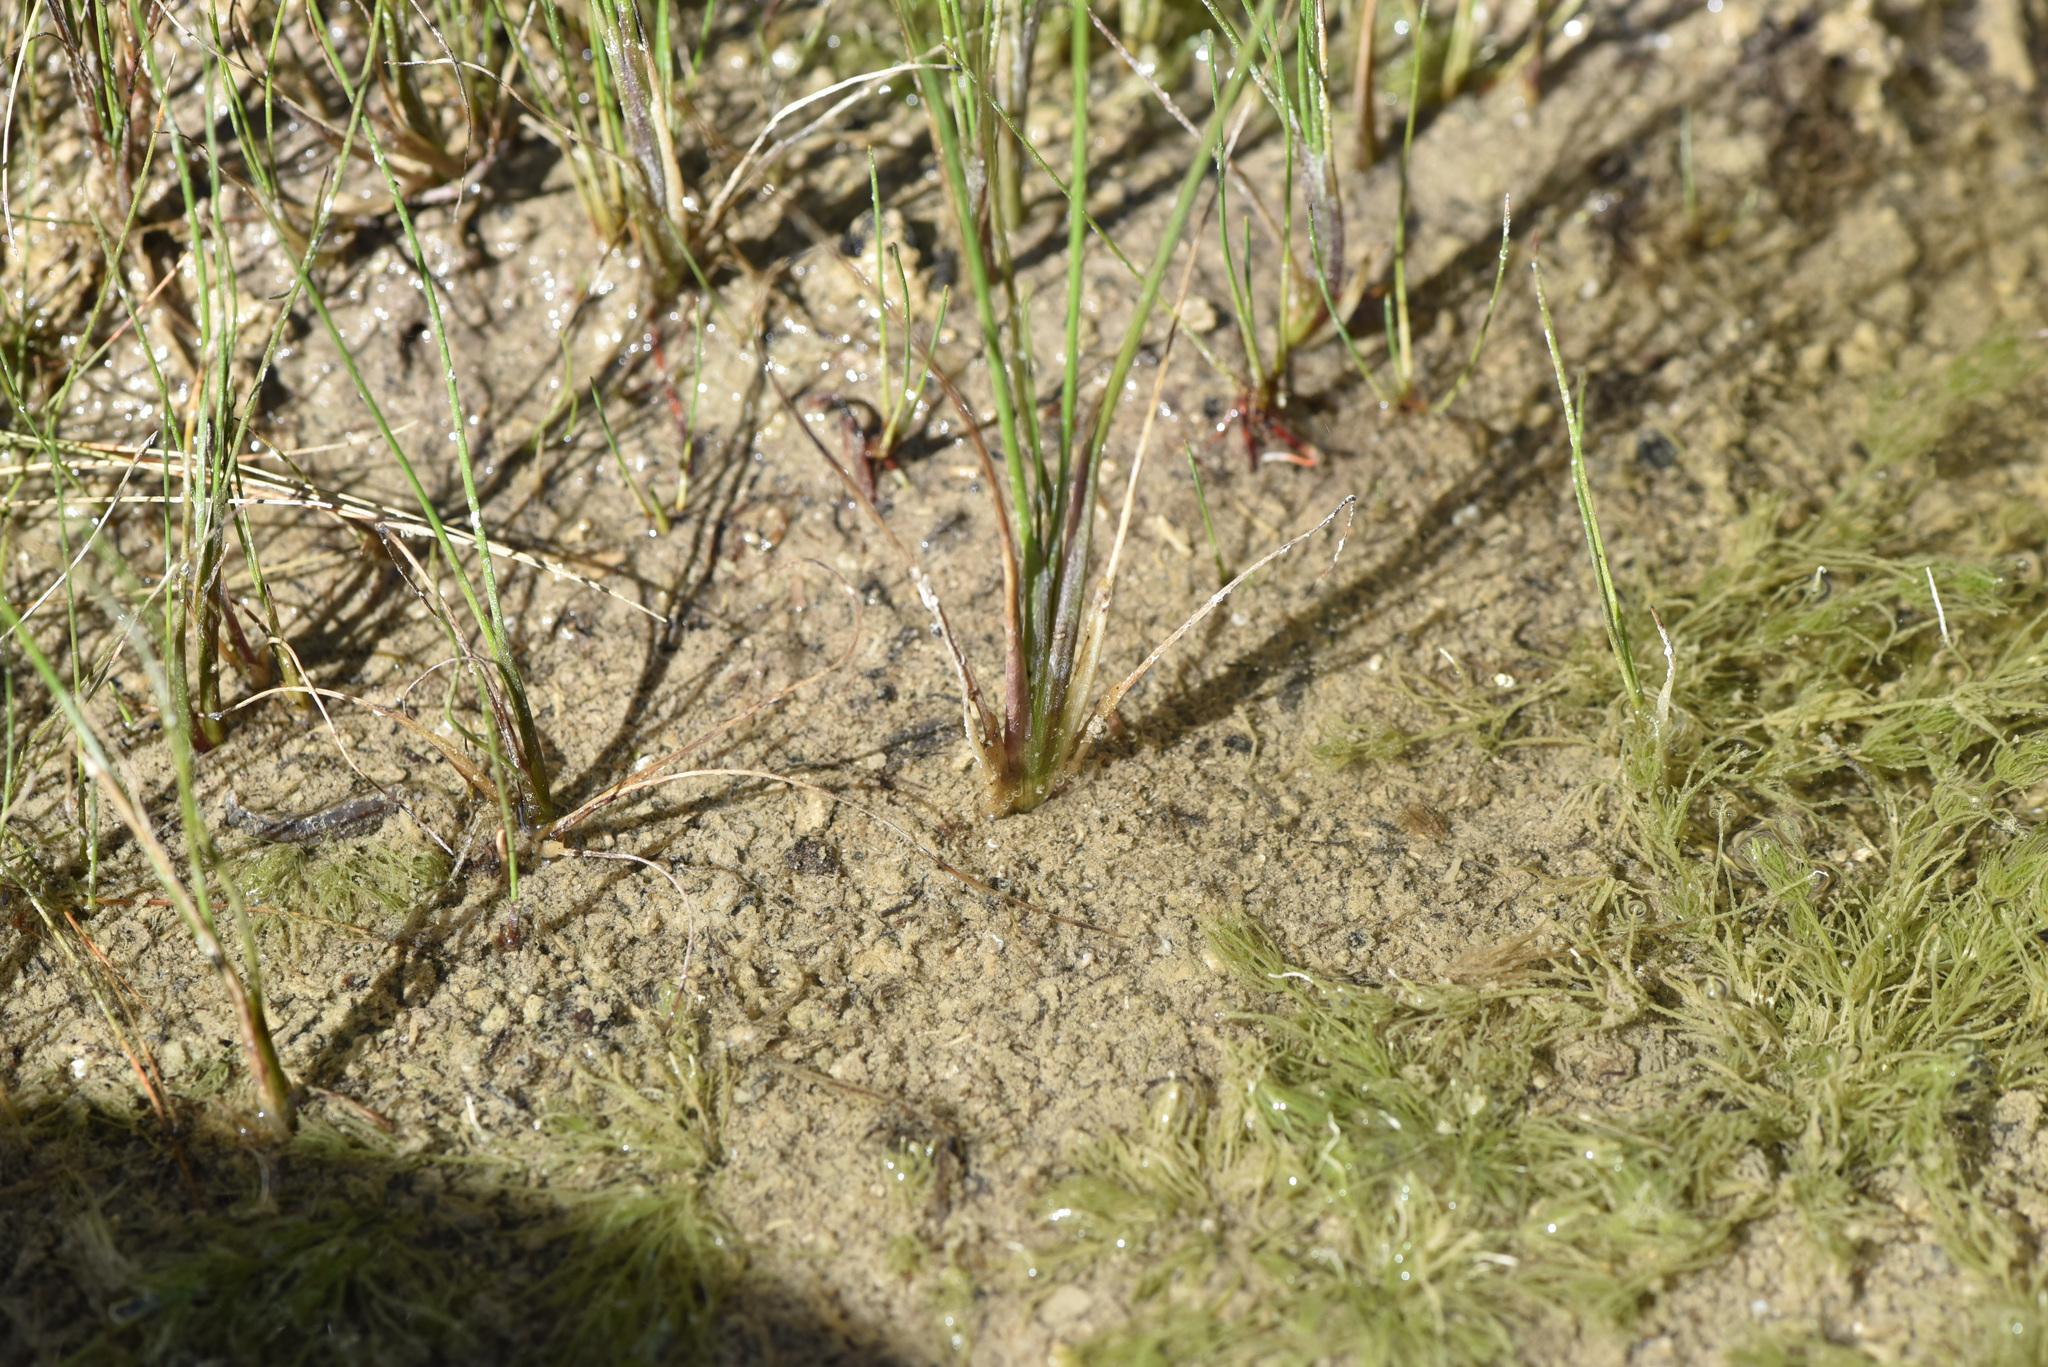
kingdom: Plantae
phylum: Tracheophyta
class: Liliopsida
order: Alismatales
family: Juncaginaceae
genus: Triglochin
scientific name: Triglochin palustris
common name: Marsh arrowgrass
